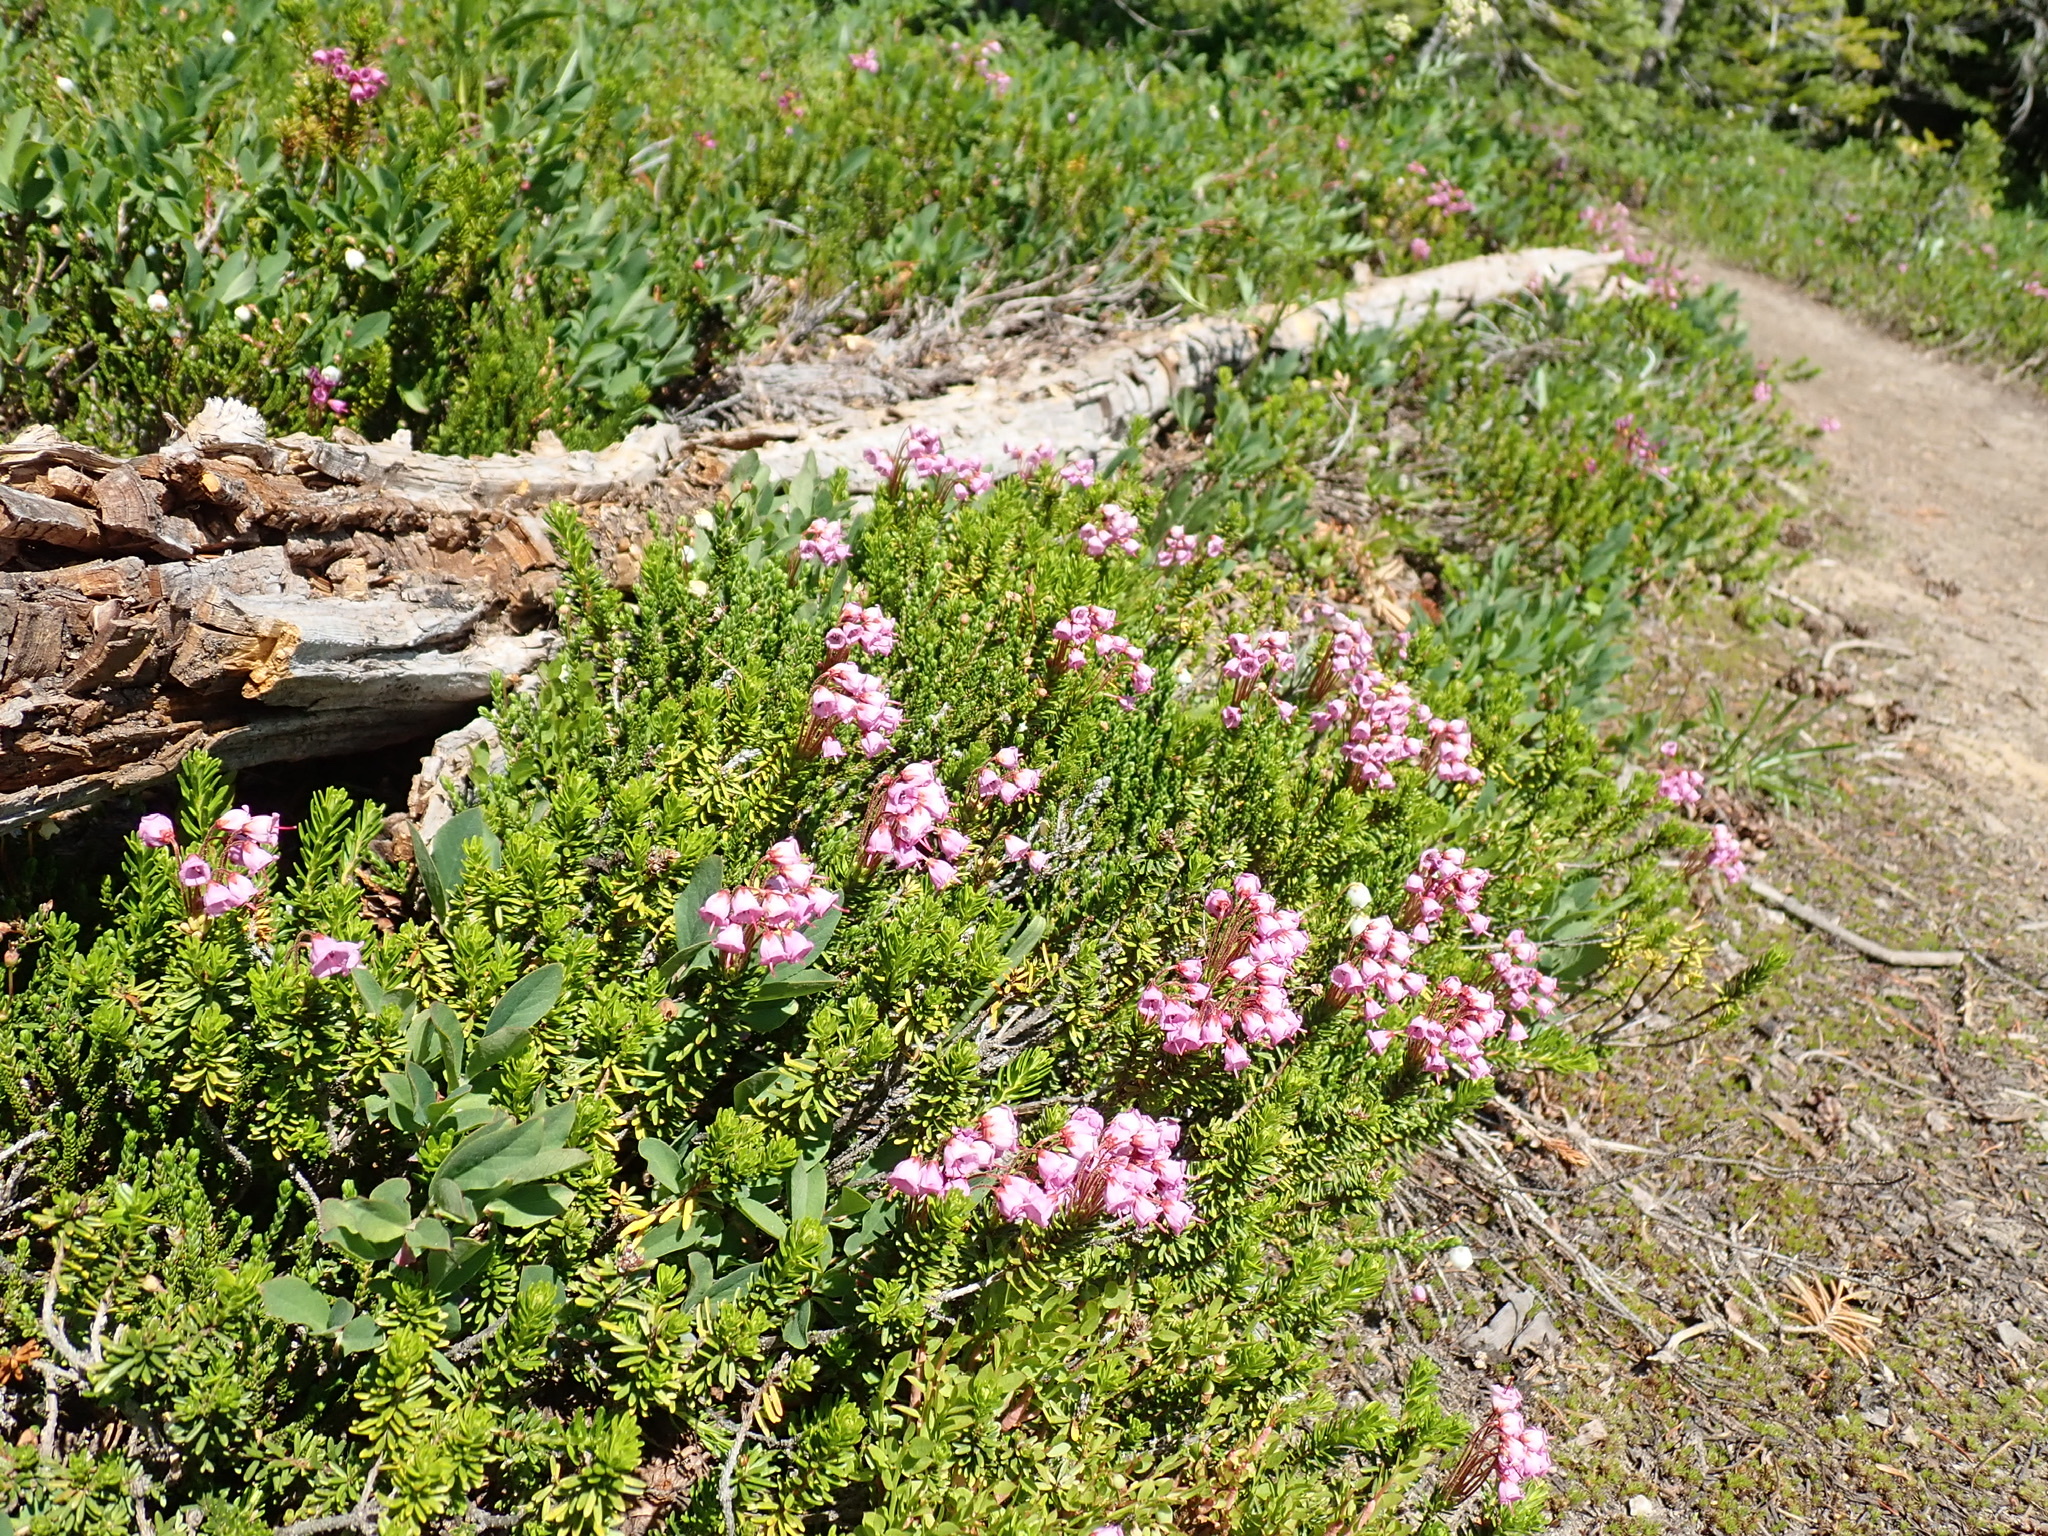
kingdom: Plantae
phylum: Tracheophyta
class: Magnoliopsida
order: Ericales
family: Ericaceae
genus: Phyllodoce
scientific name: Phyllodoce empetriformis
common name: Pink mountain heather
